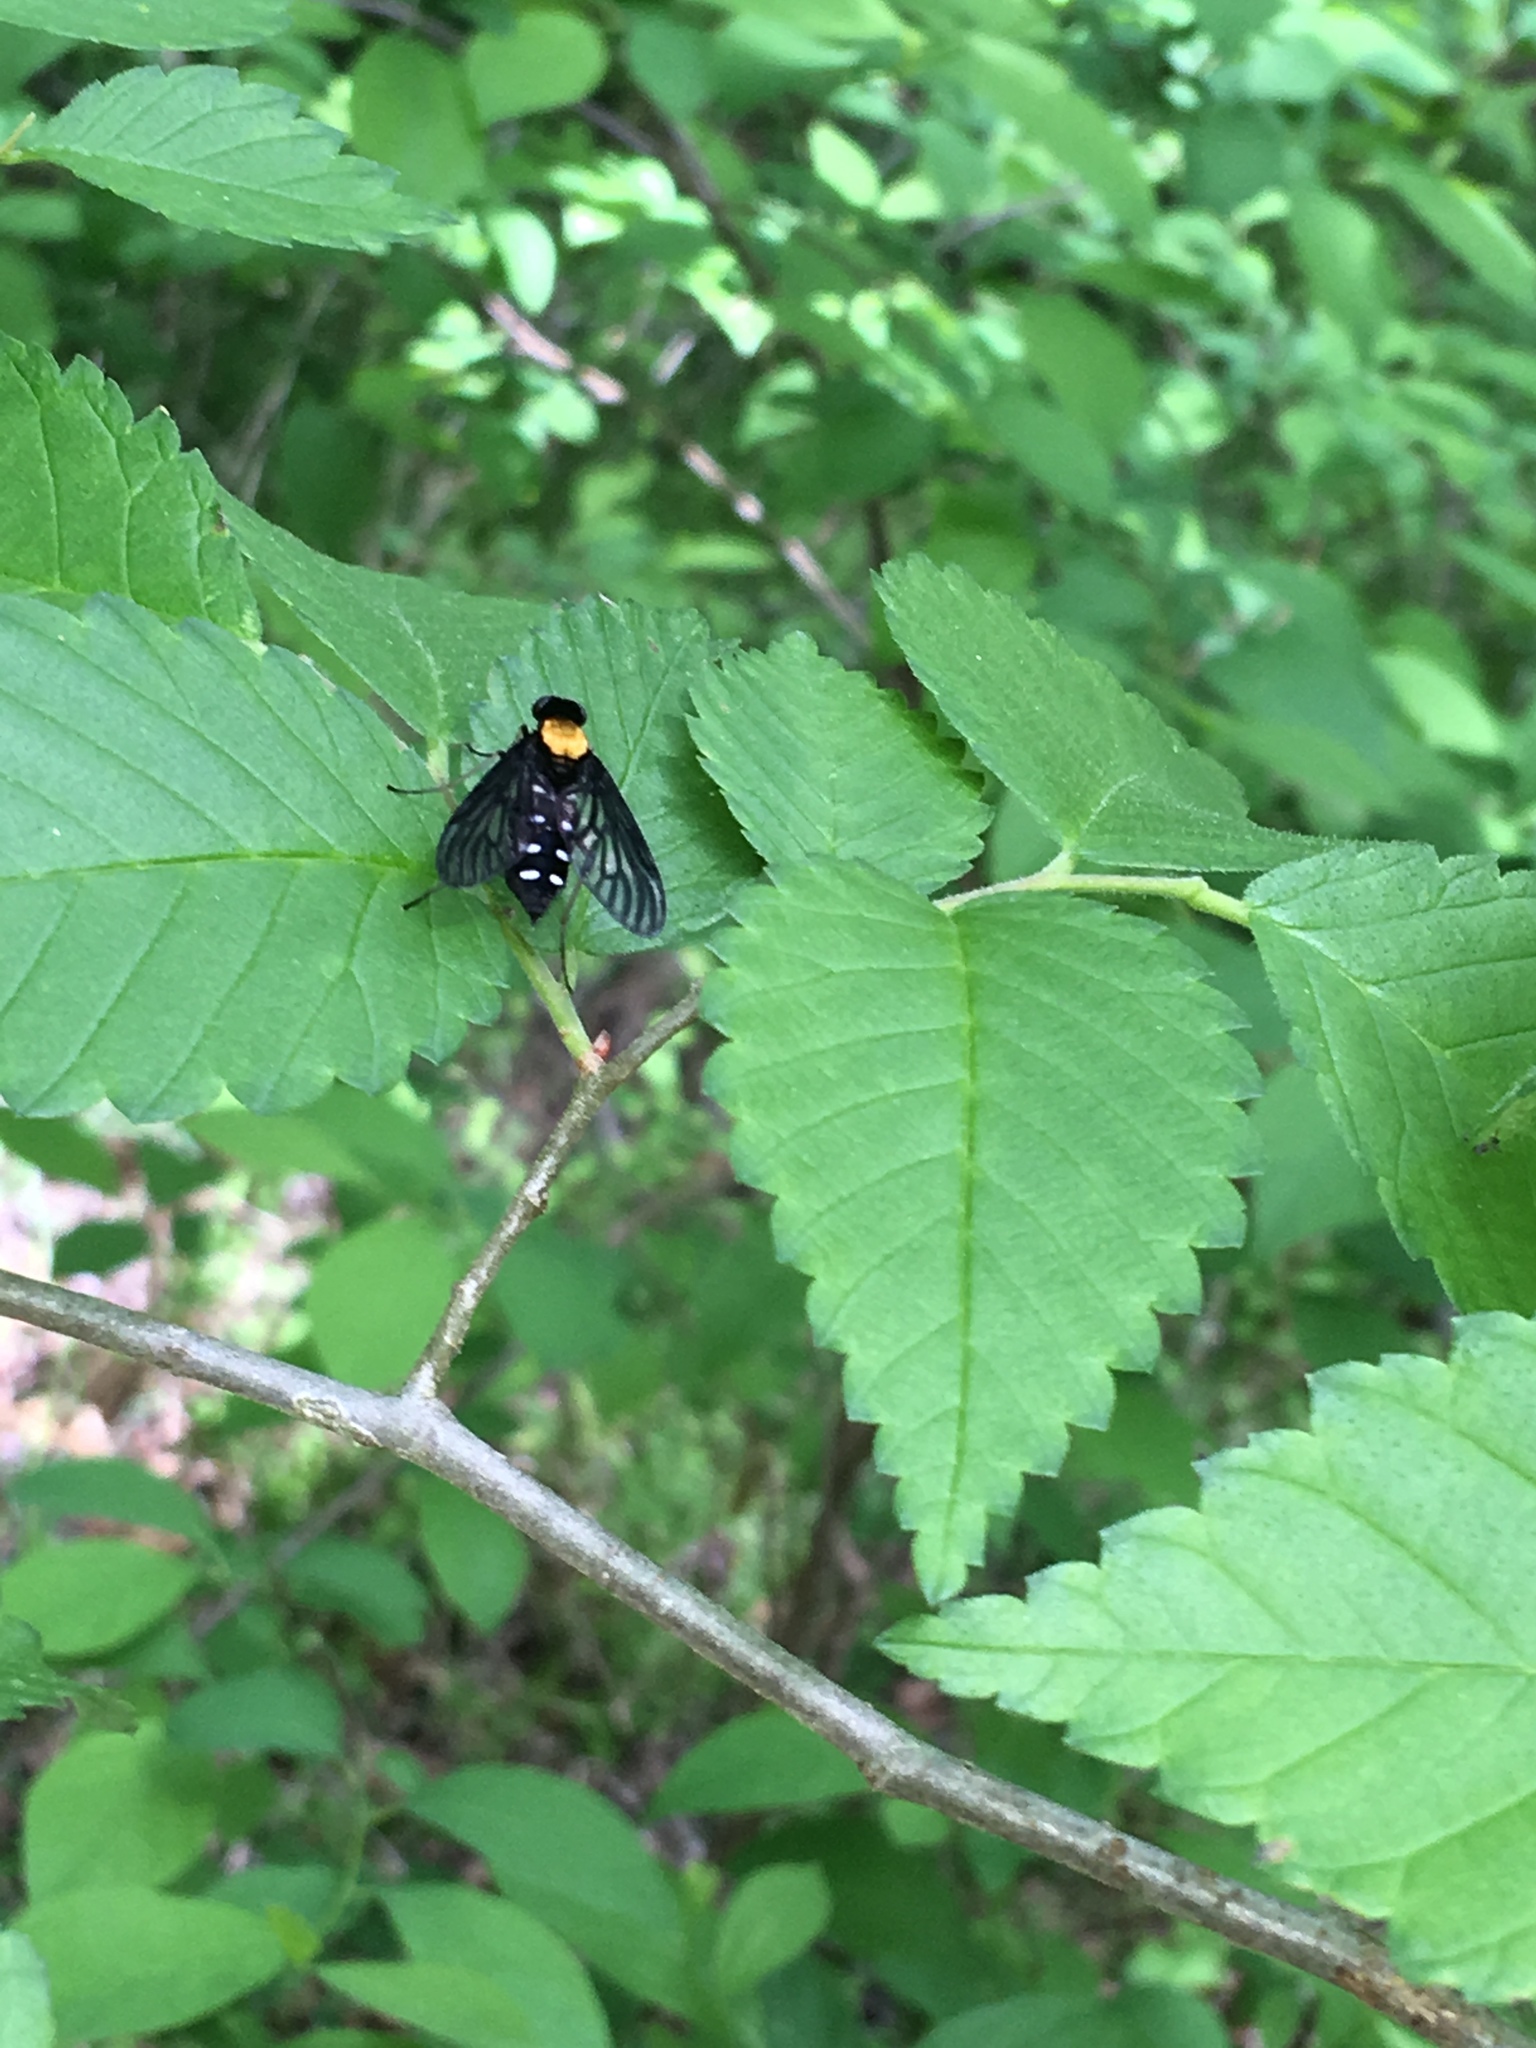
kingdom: Animalia
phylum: Arthropoda
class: Insecta
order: Diptera
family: Rhagionidae
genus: Chrysopilus
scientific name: Chrysopilus thoracicus
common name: Golden-backed snipe fly
